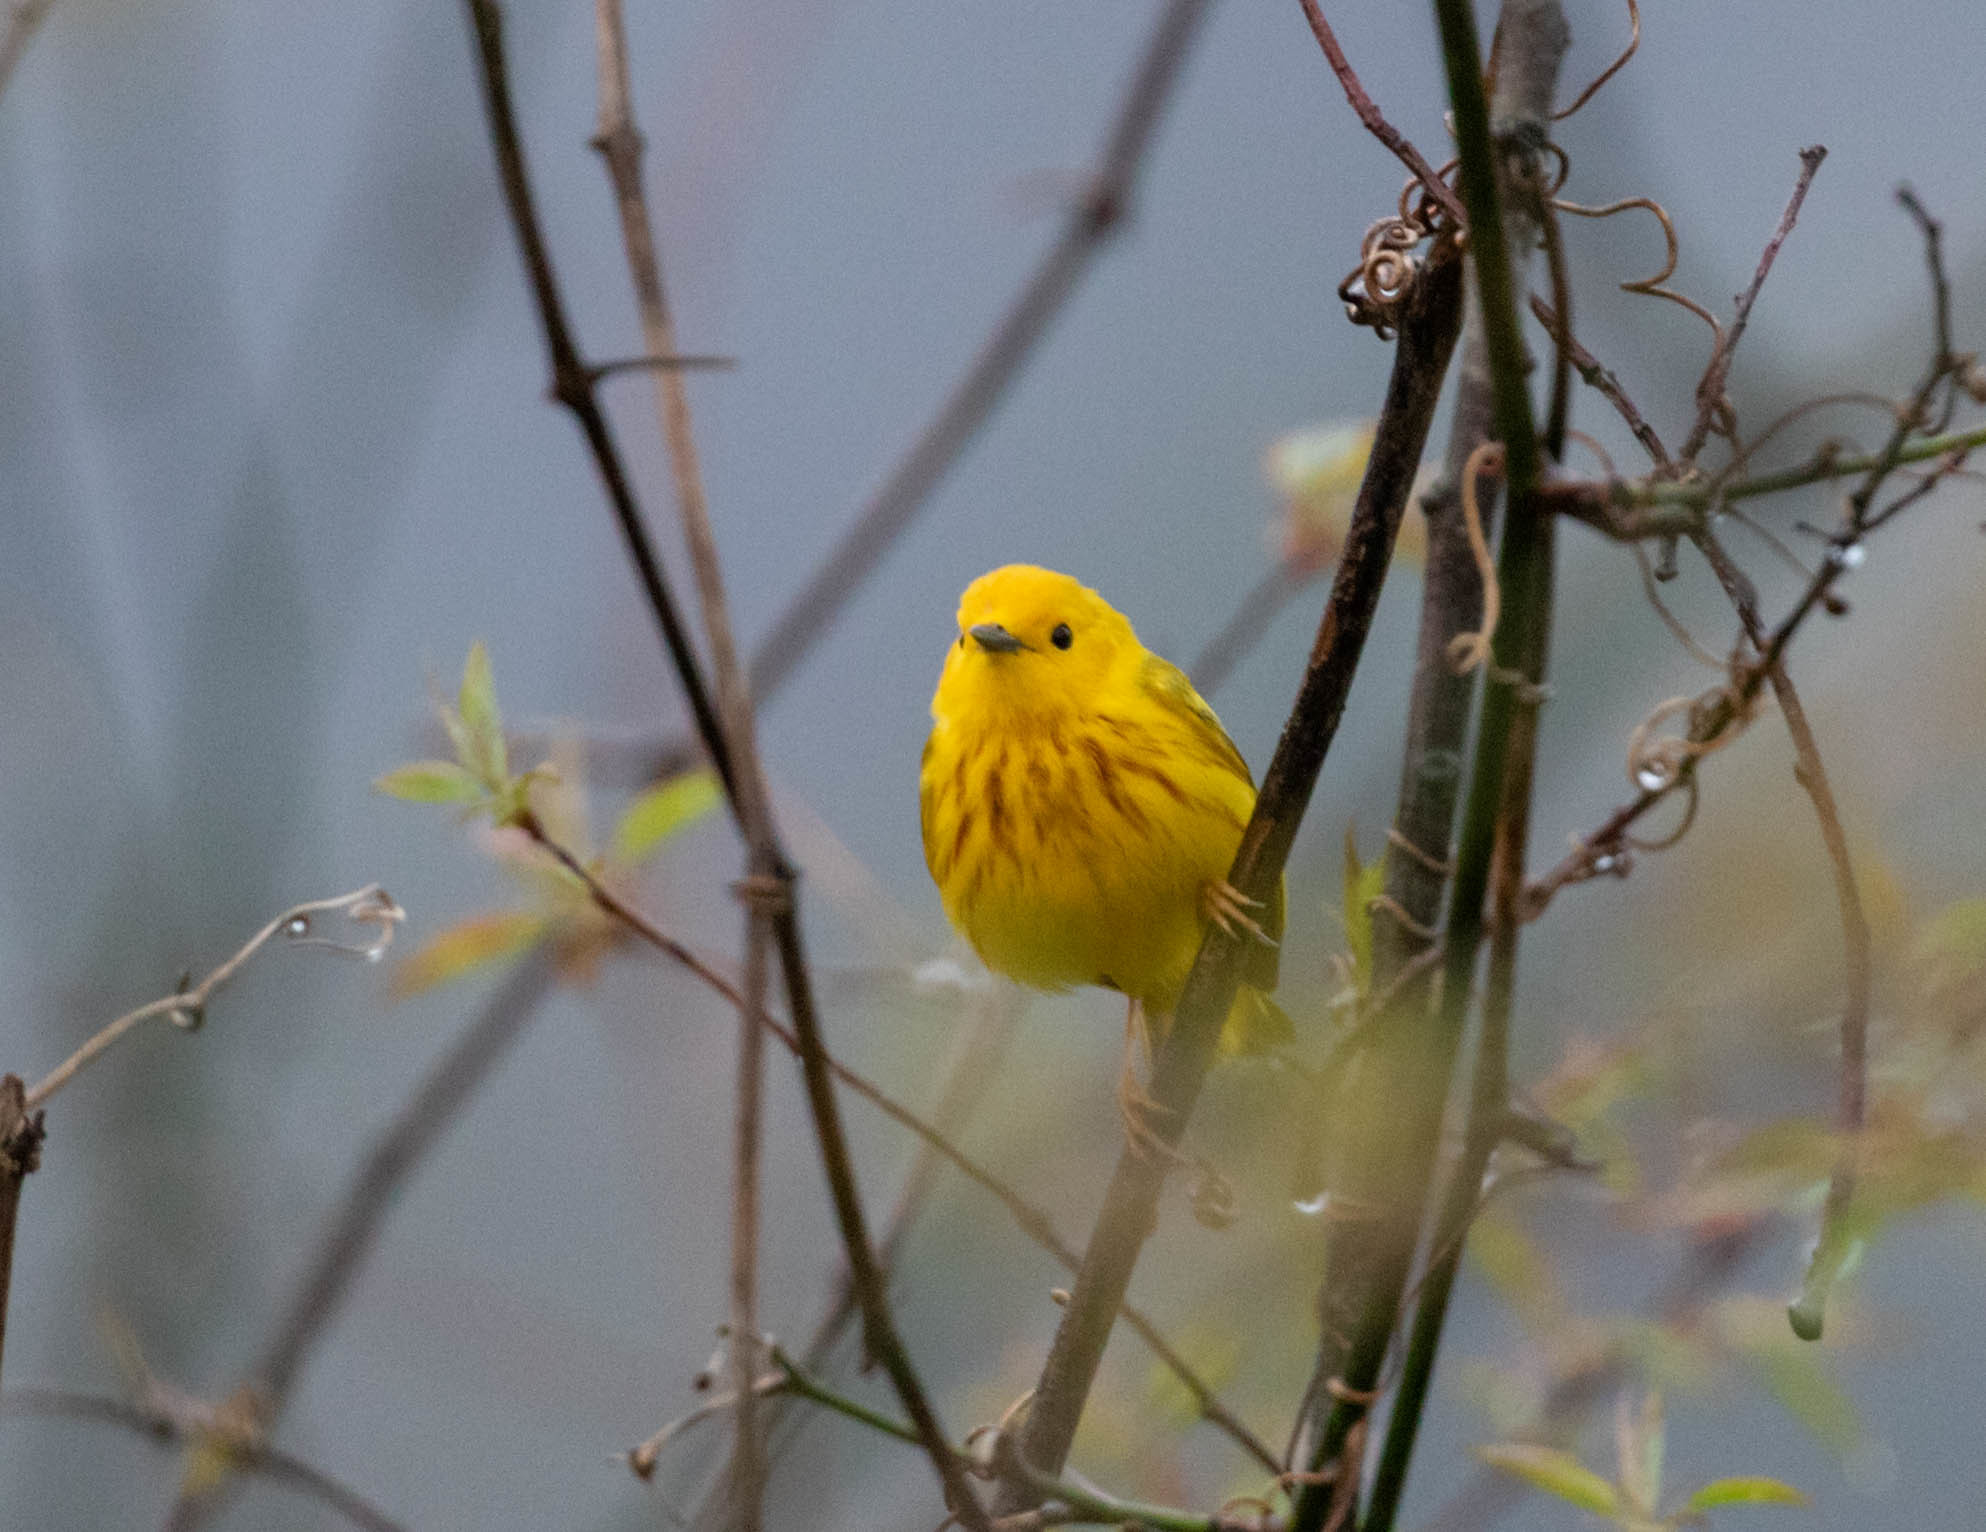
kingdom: Animalia
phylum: Chordata
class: Aves
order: Passeriformes
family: Parulidae
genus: Setophaga
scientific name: Setophaga petechia
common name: Yellow warbler
